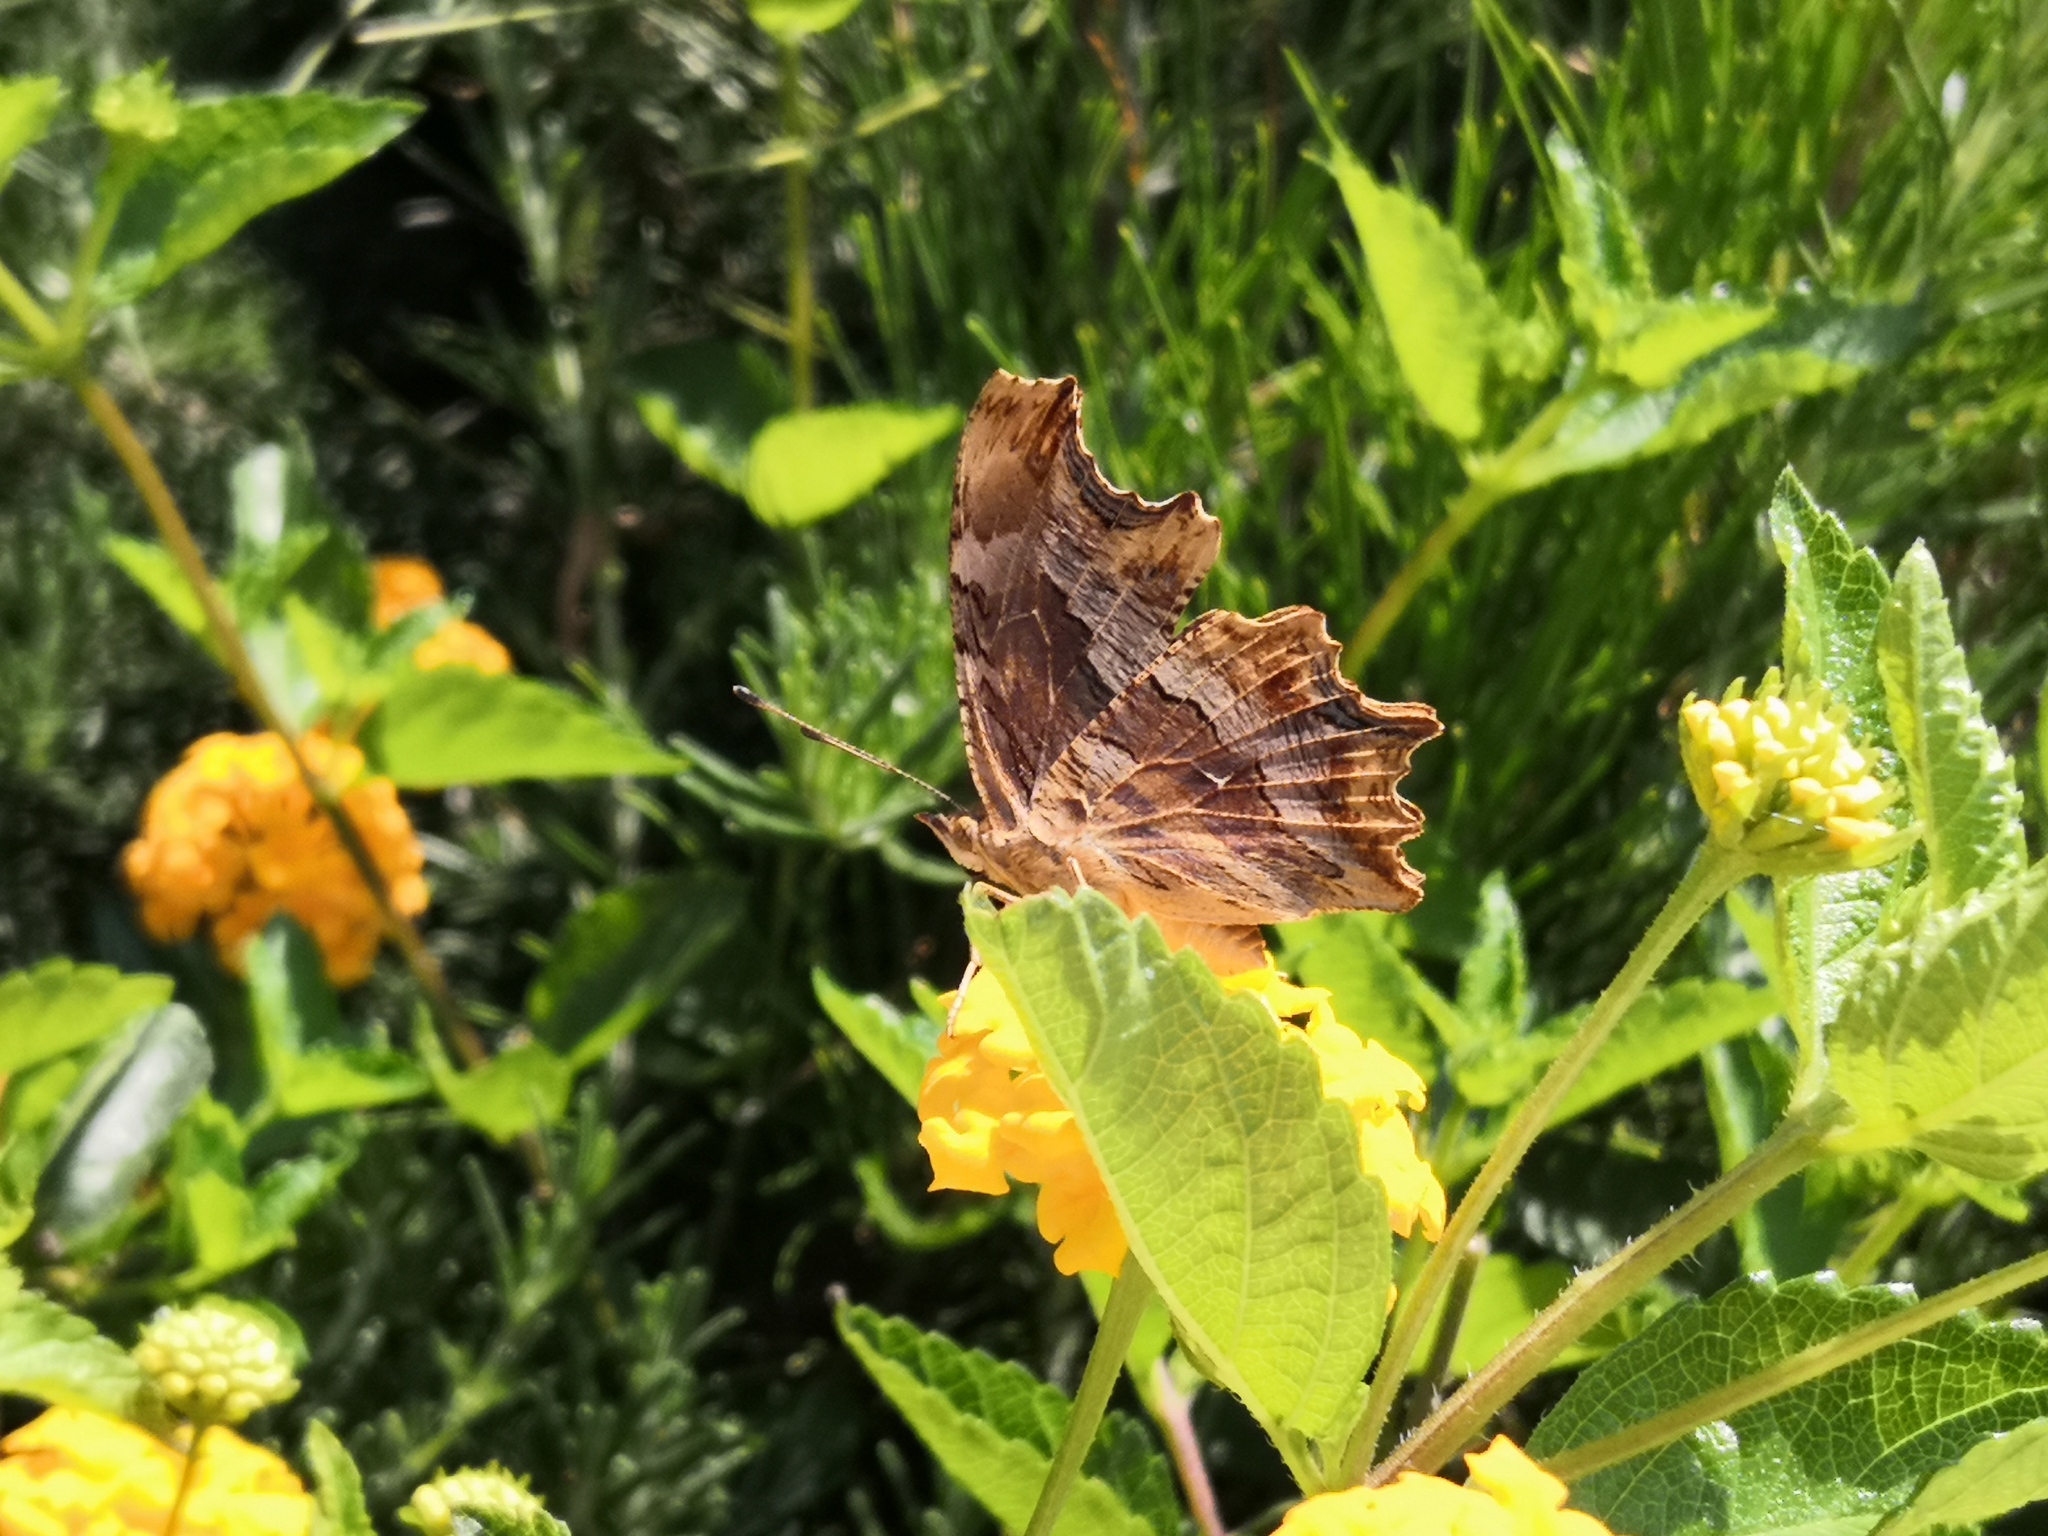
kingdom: Animalia
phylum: Arthropoda
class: Insecta
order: Lepidoptera
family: Nymphalidae
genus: Polygonia
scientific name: Polygonia egea
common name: Southern comma
